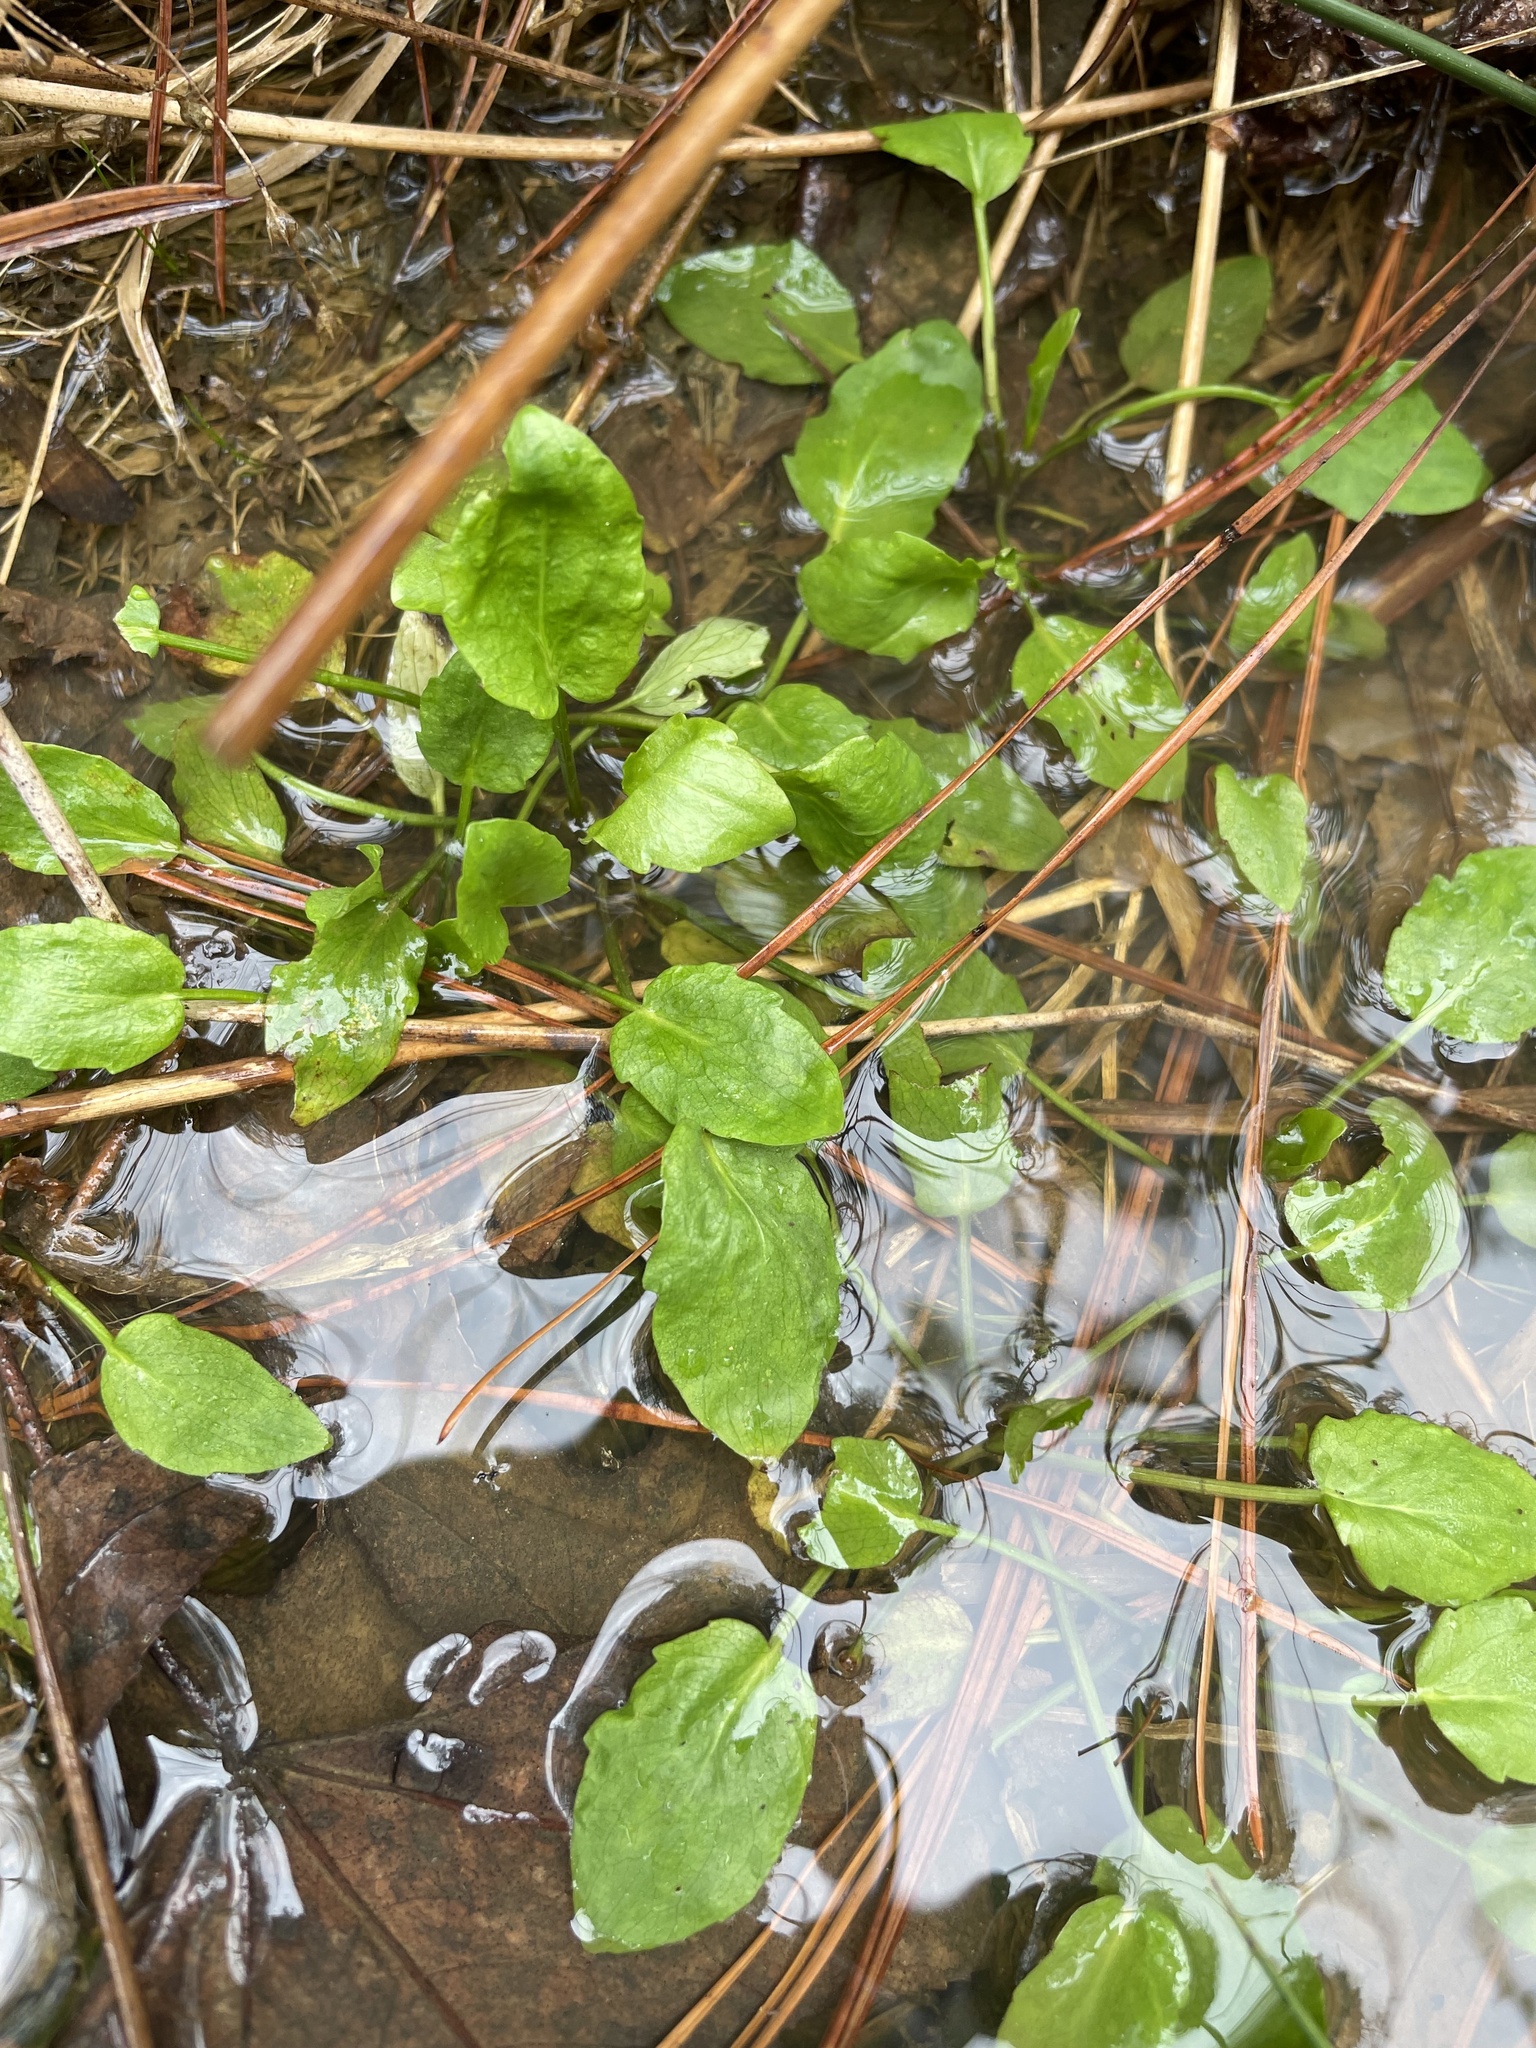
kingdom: Plantae
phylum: Tracheophyta
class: Magnoliopsida
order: Apiales
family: Apiaceae
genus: Eryngium
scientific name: Eryngium prostratum
